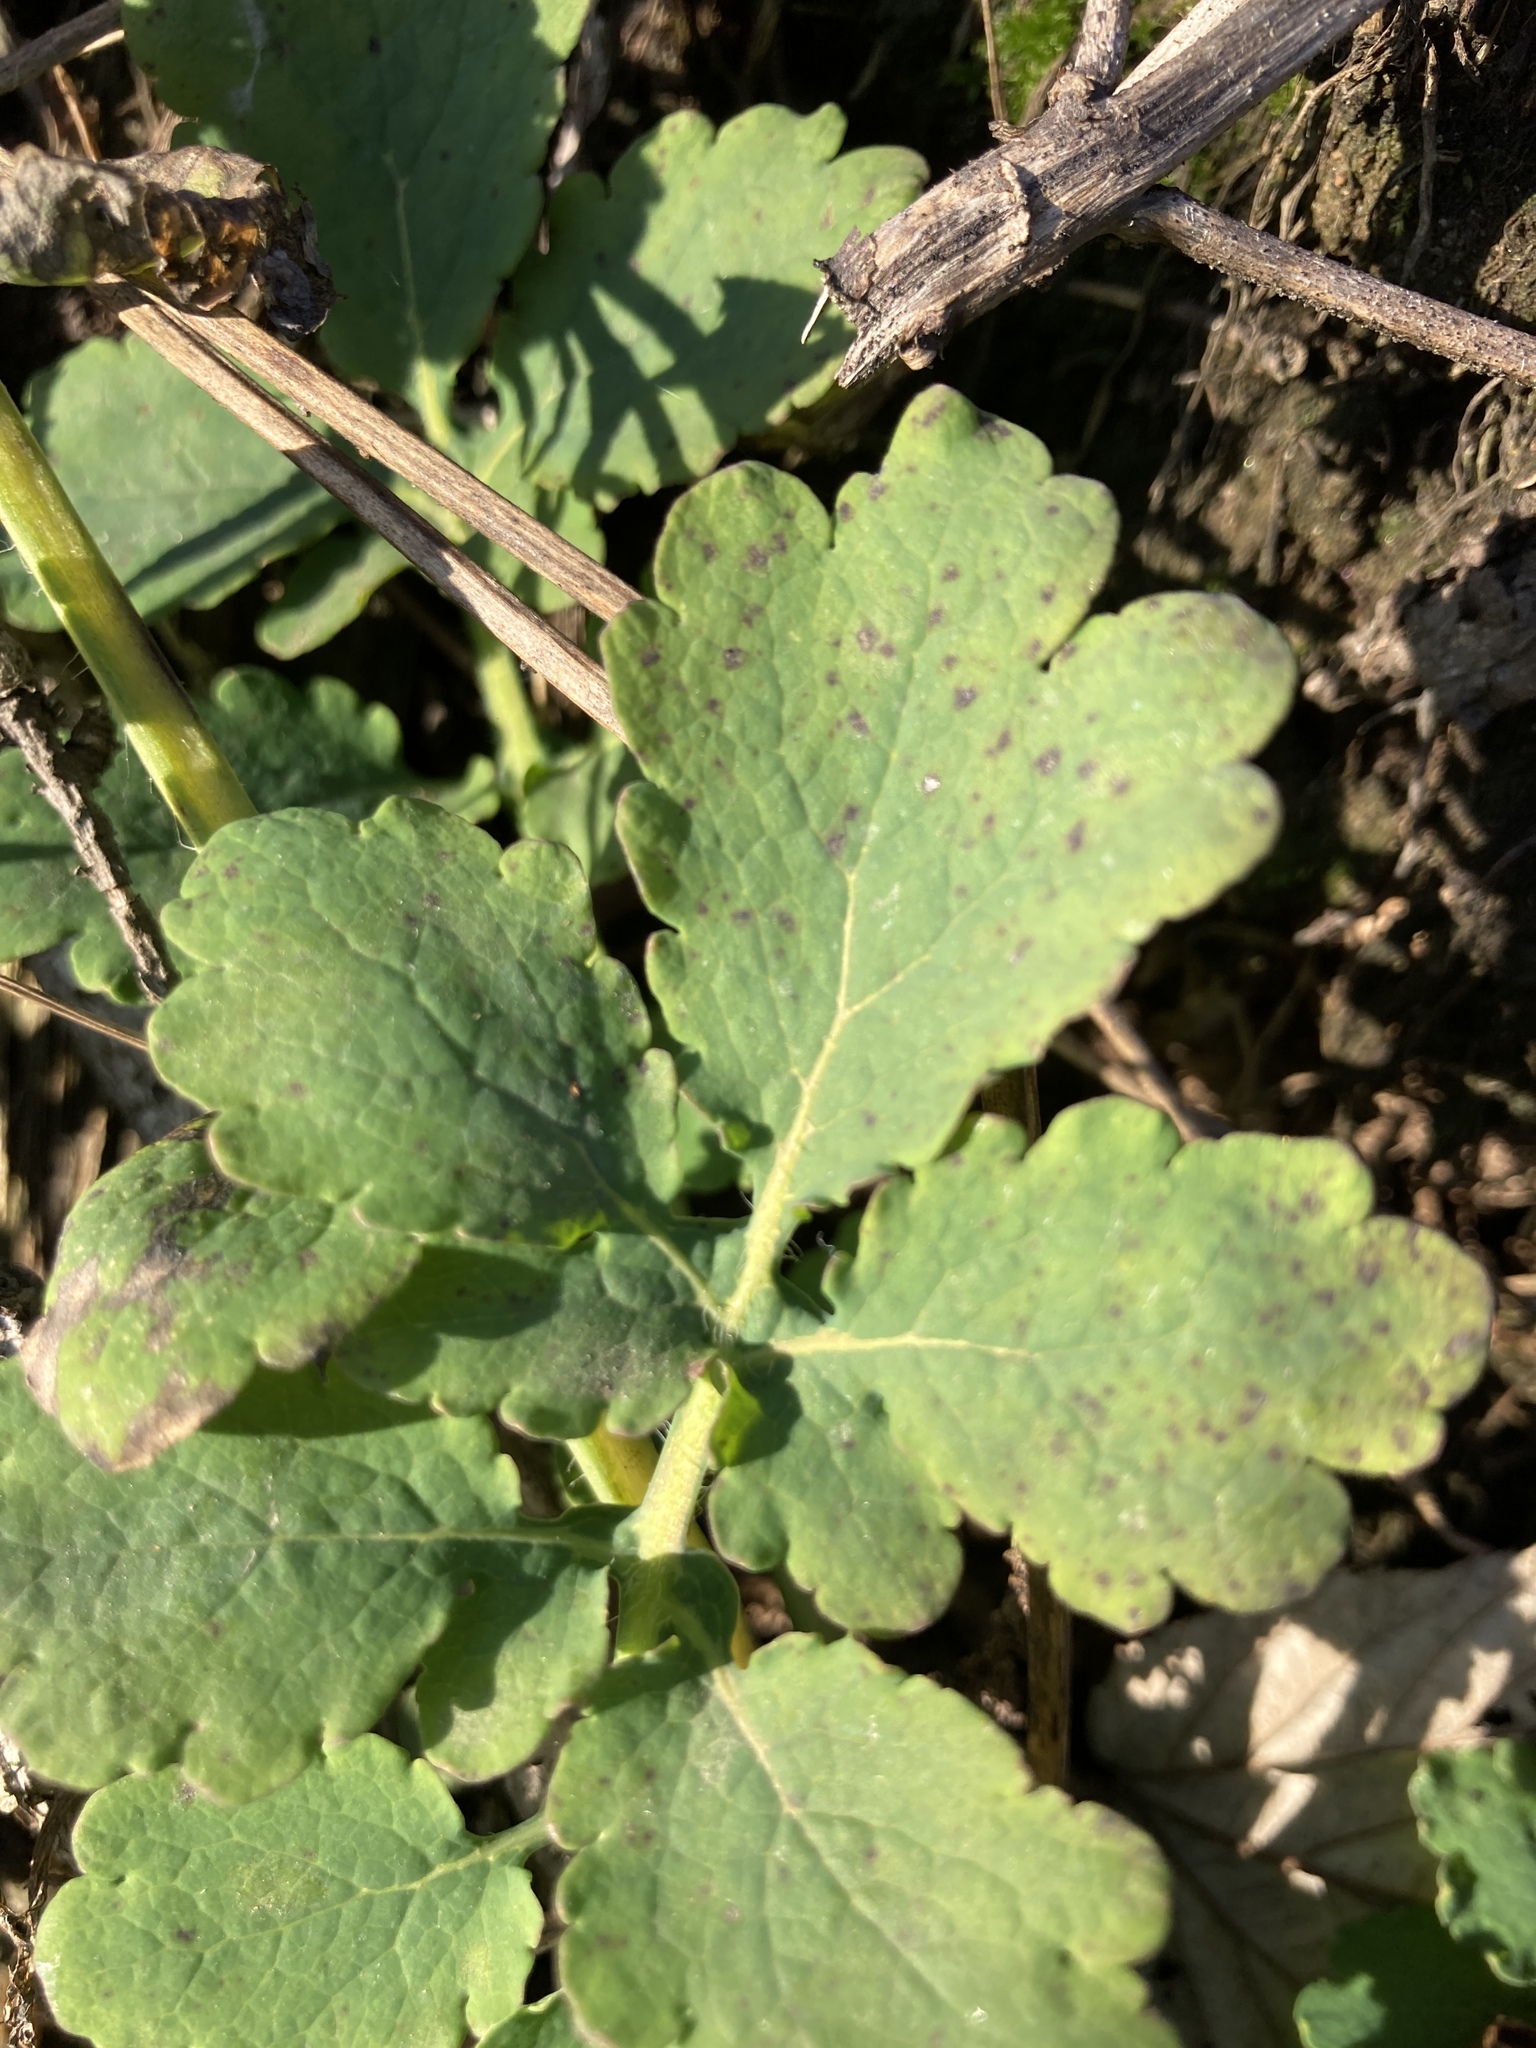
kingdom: Plantae
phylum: Tracheophyta
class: Magnoliopsida
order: Ranunculales
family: Papaveraceae
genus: Chelidonium
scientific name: Chelidonium majus
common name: Greater celandine
